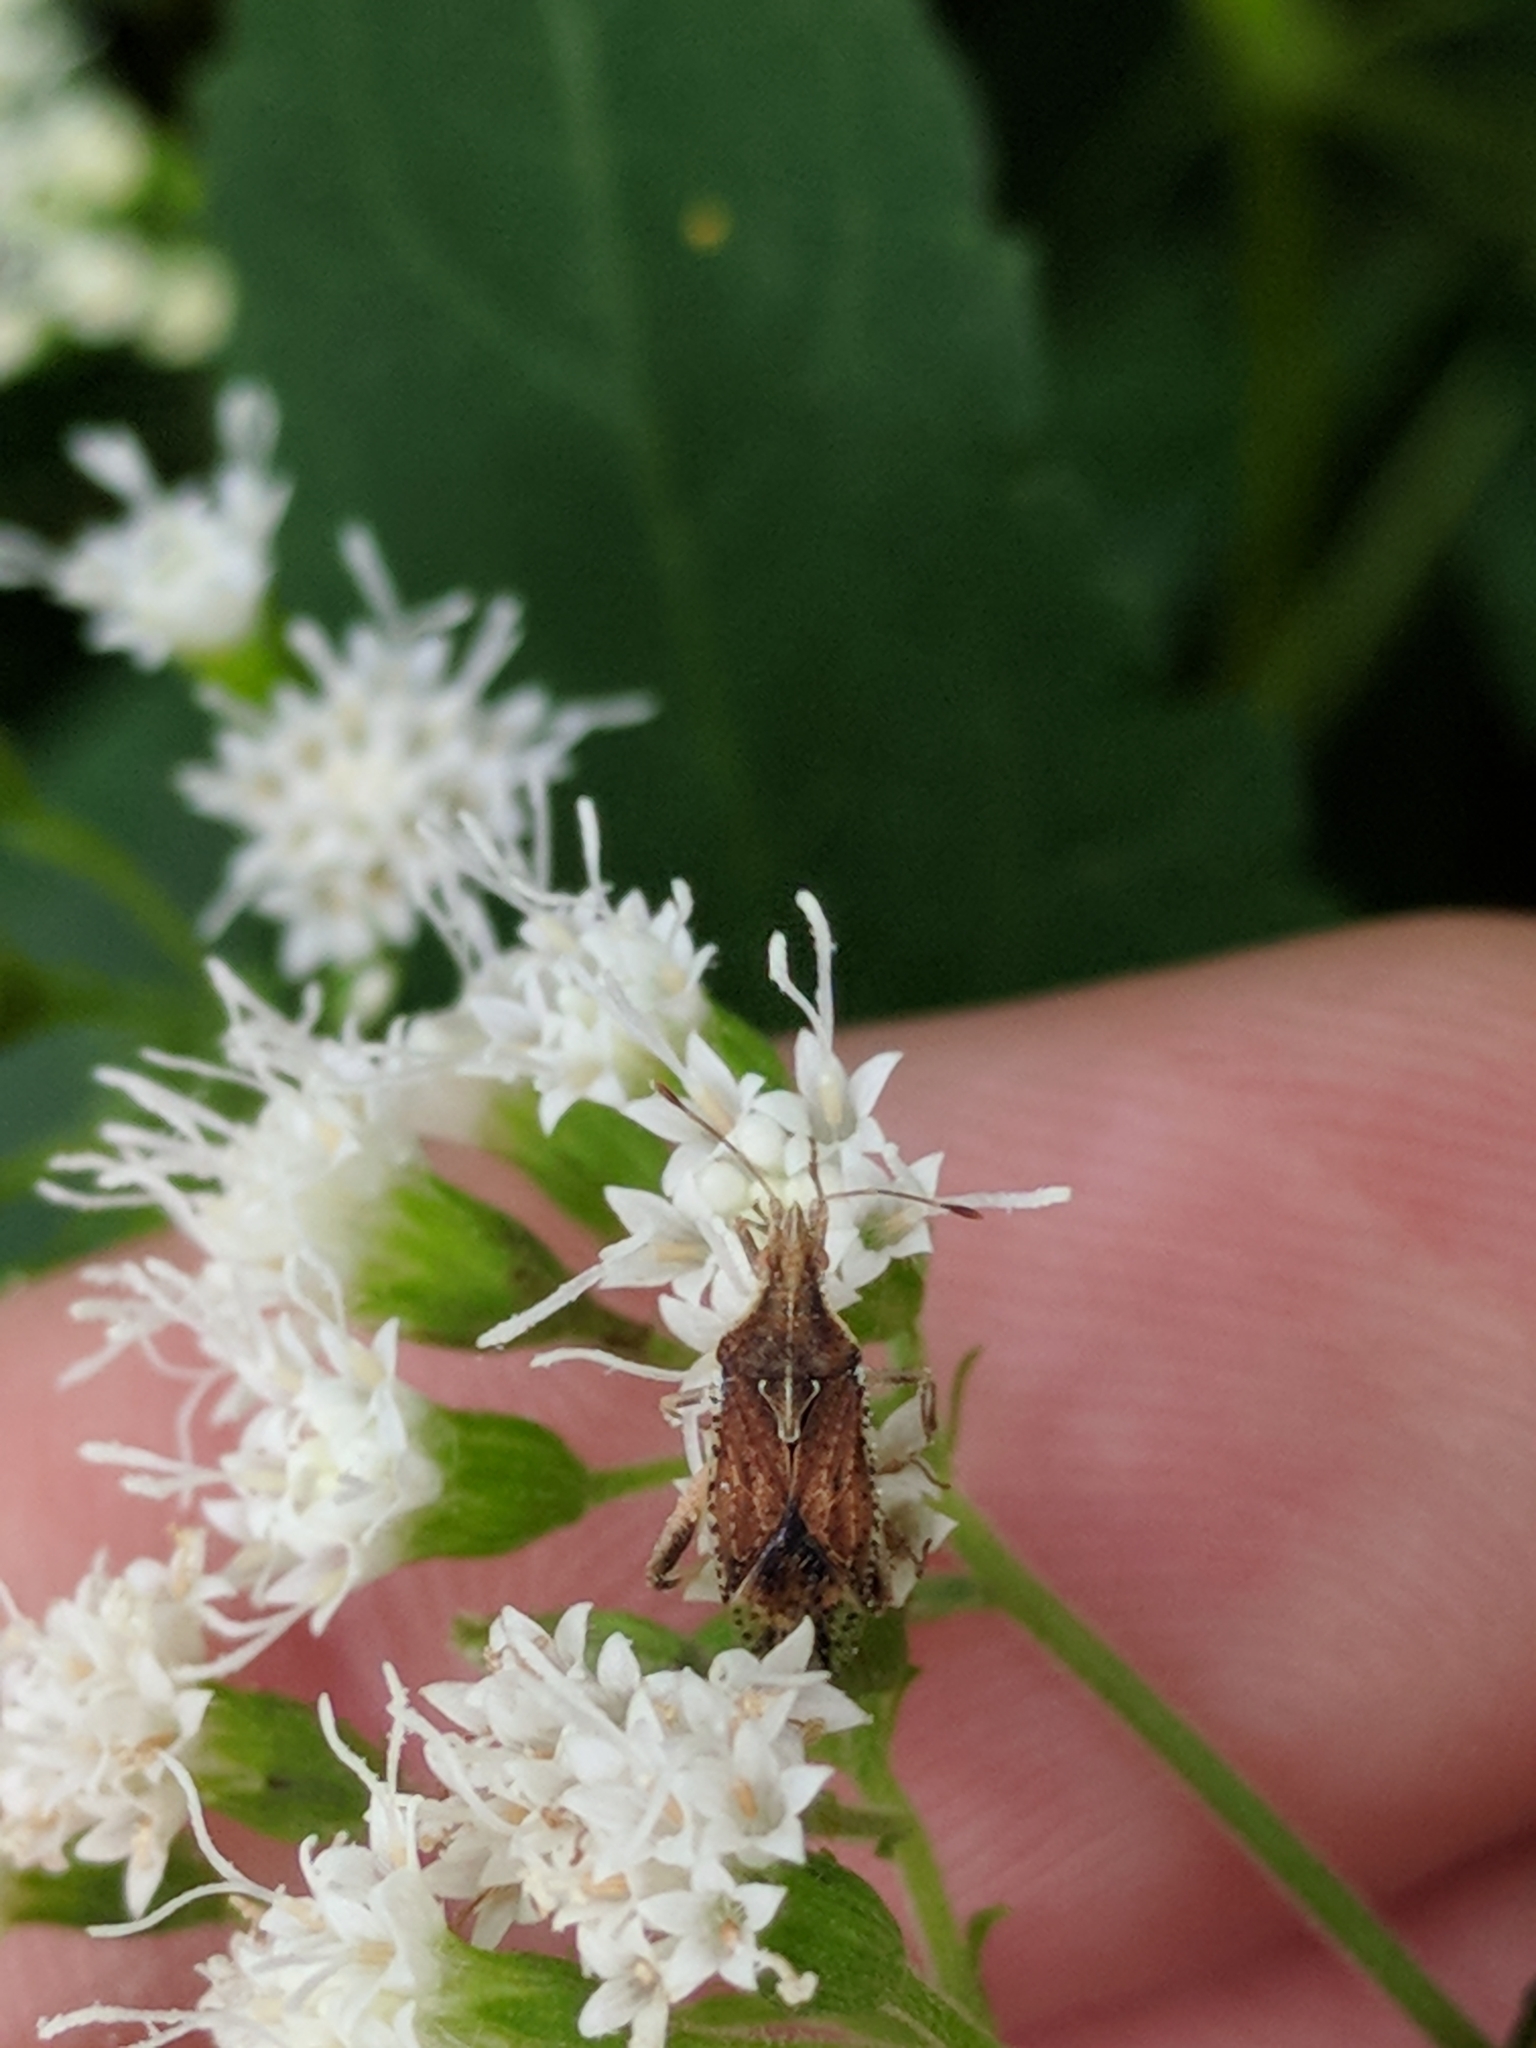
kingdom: Animalia
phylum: Arthropoda
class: Insecta
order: Hemiptera
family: Rhopalidae
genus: Harmostes
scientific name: Harmostes
